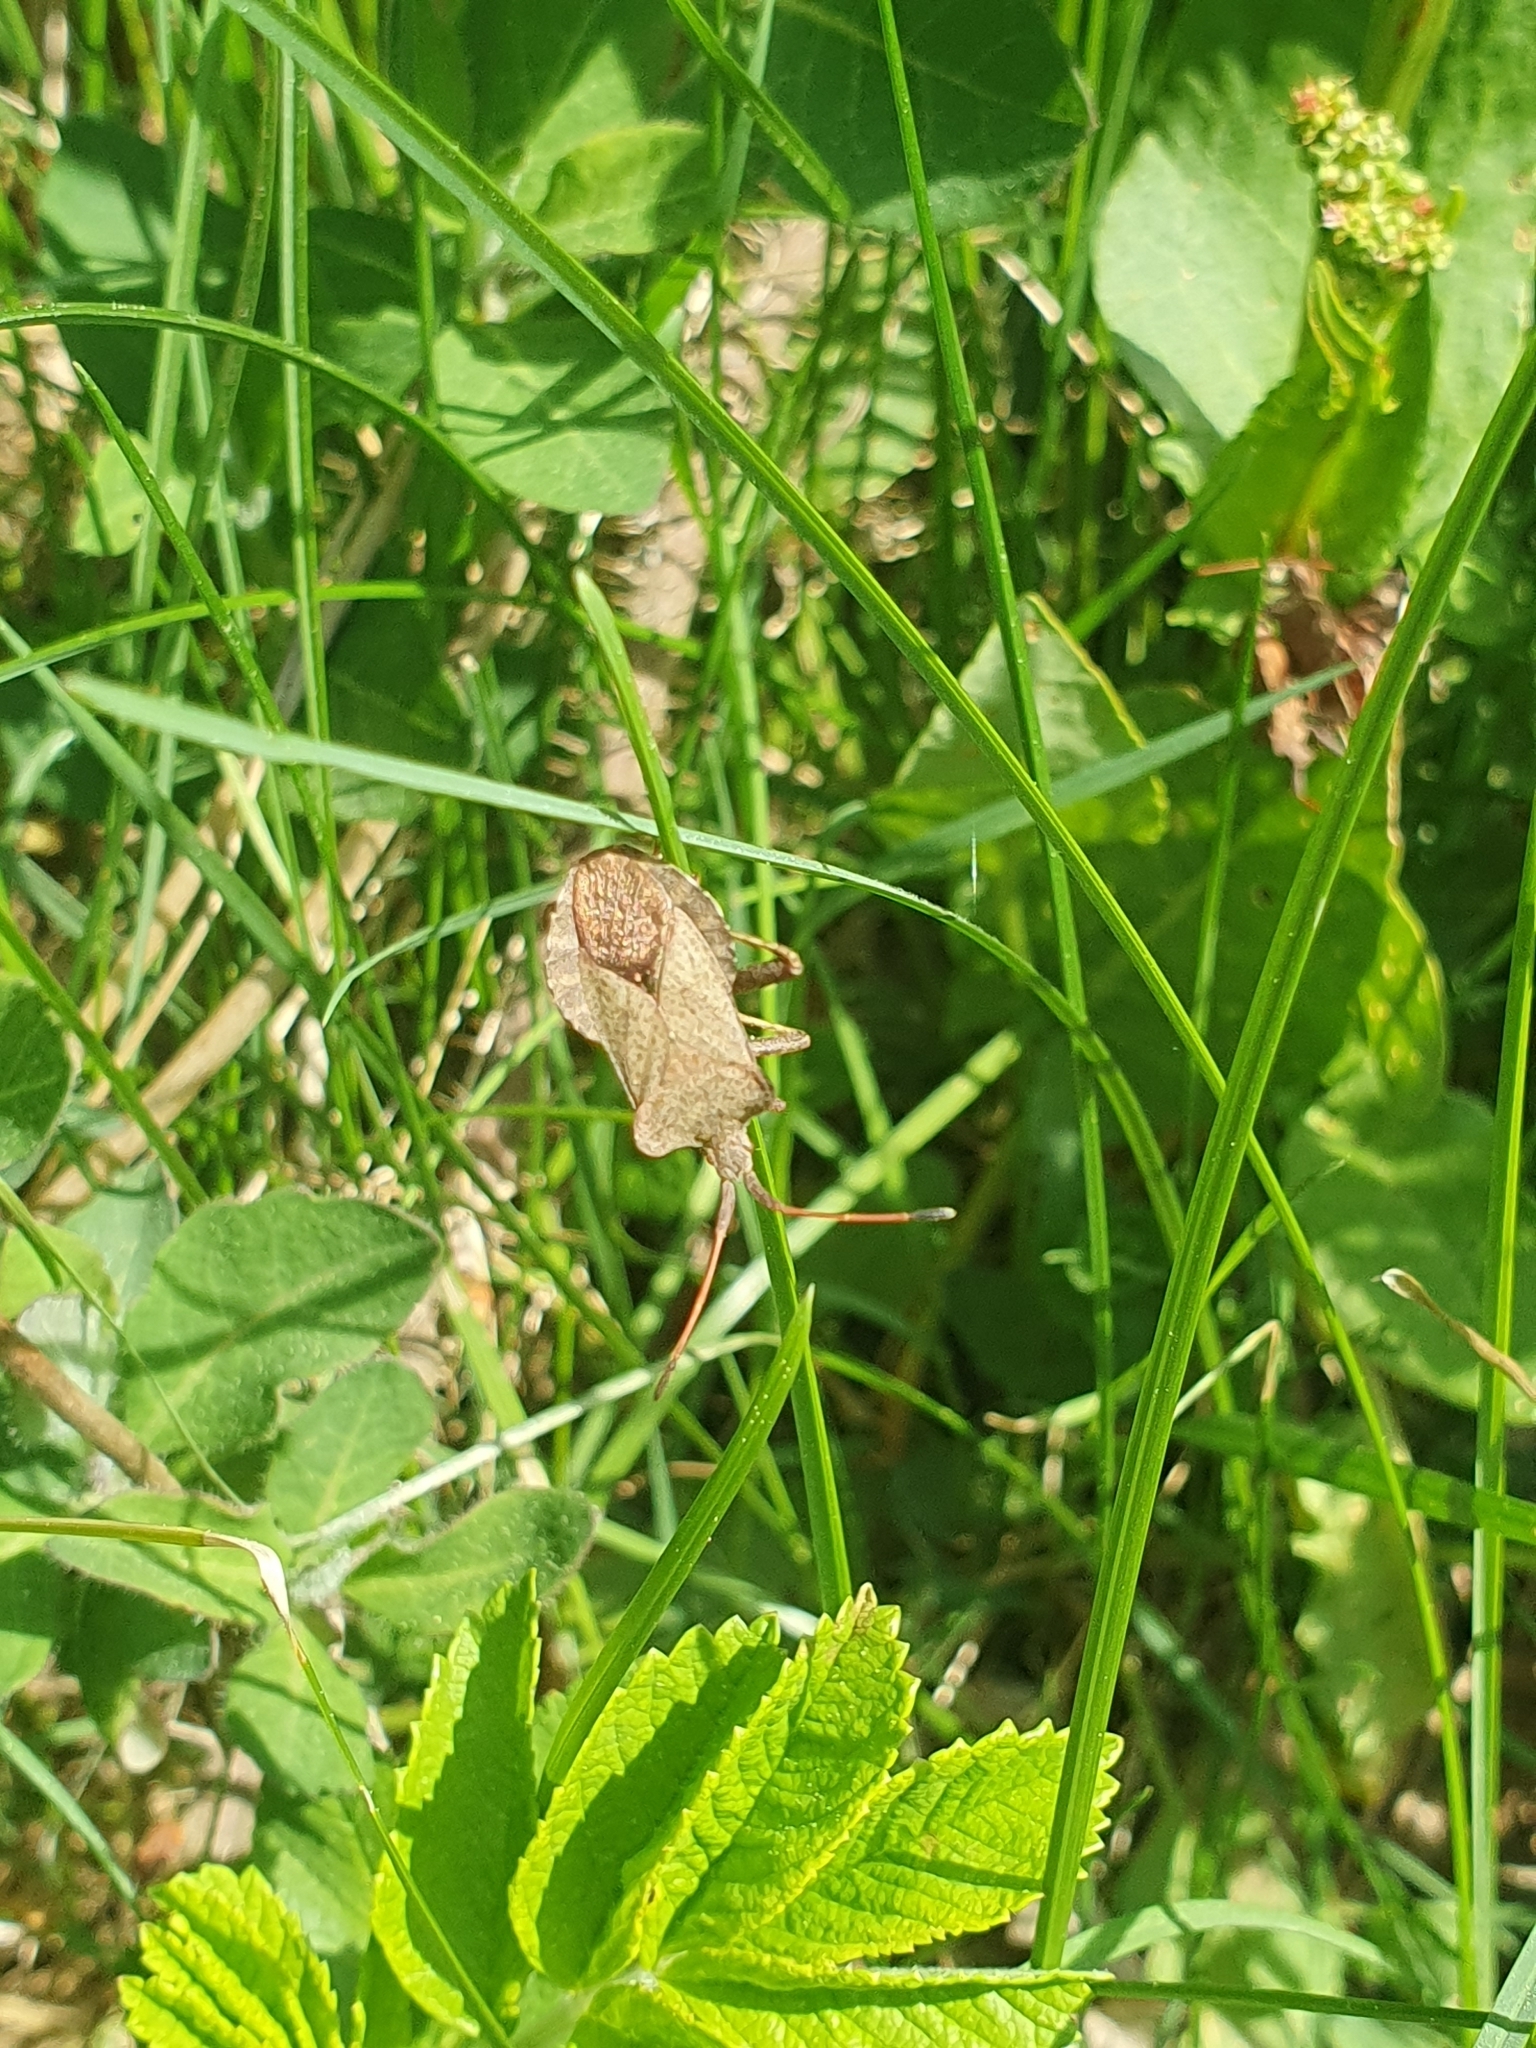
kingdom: Animalia
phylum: Arthropoda
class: Insecta
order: Hemiptera
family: Coreidae
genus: Coreus
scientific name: Coreus marginatus
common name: Dock bug
